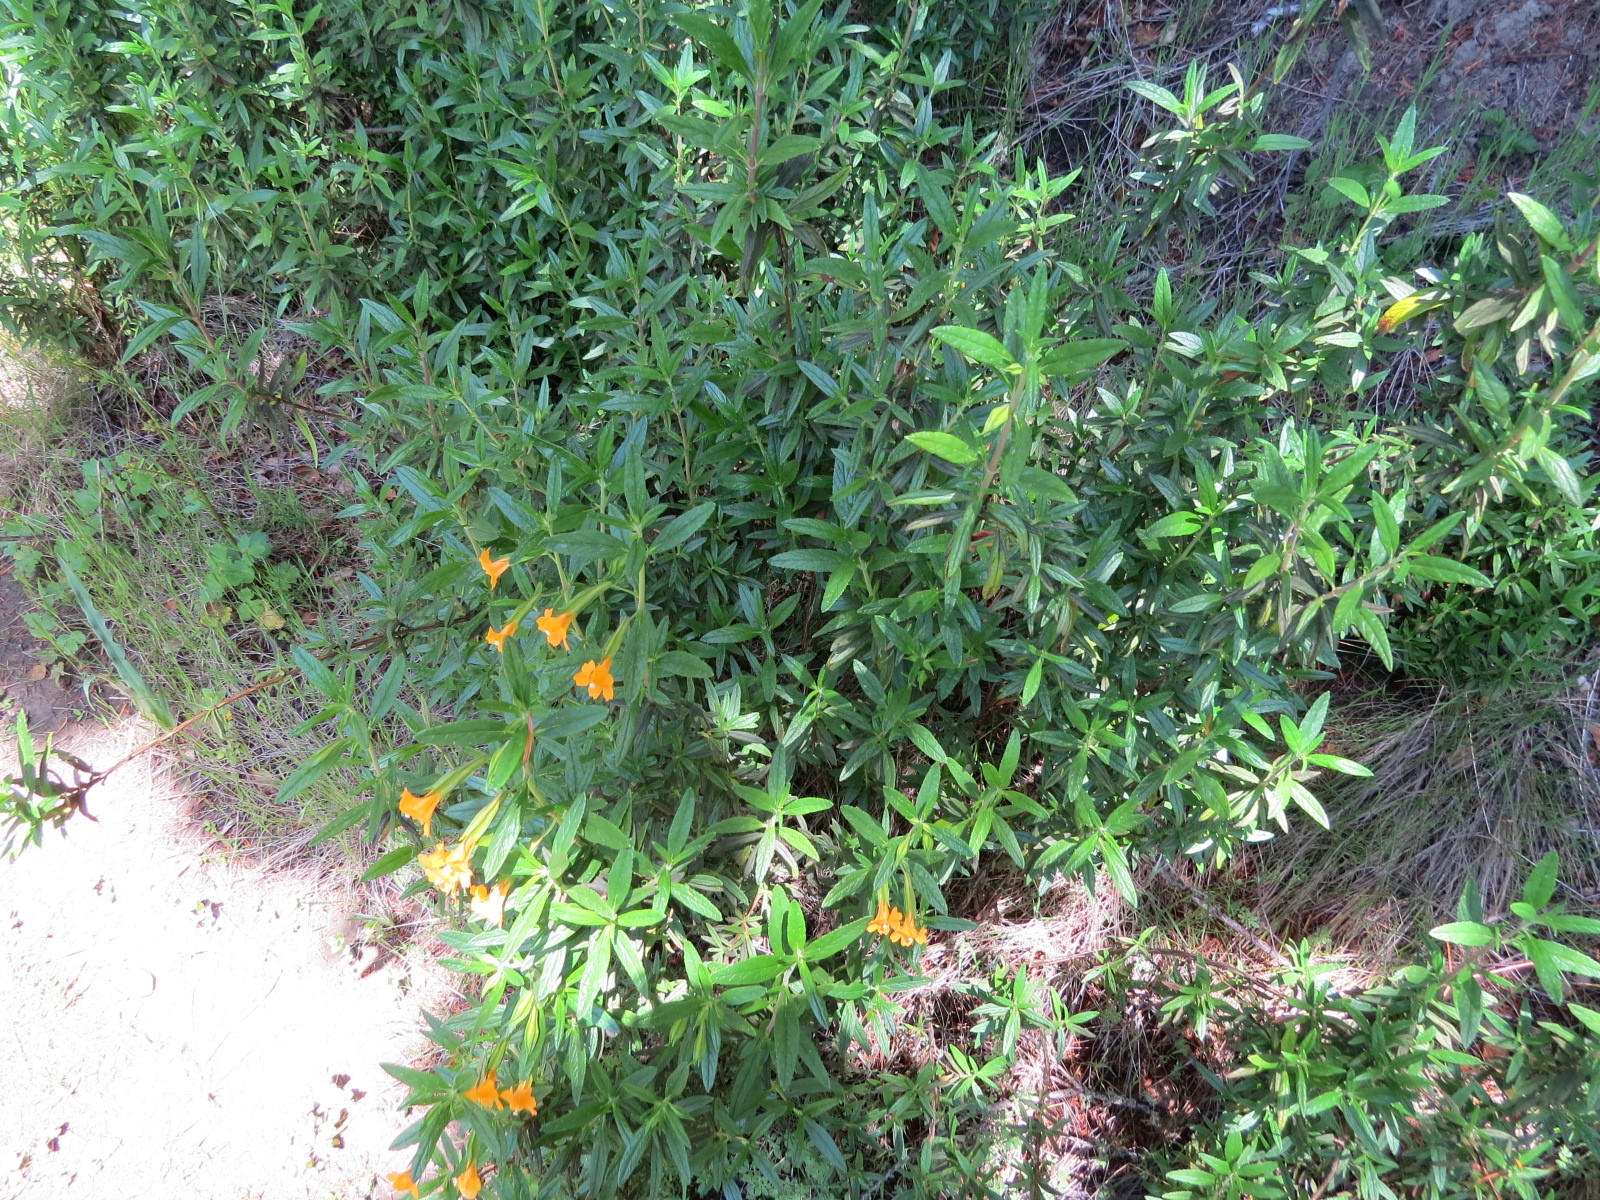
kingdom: Plantae
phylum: Tracheophyta
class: Magnoliopsida
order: Lamiales
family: Phrymaceae
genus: Diplacus
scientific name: Diplacus aurantiacus
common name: Bush monkey-flower
